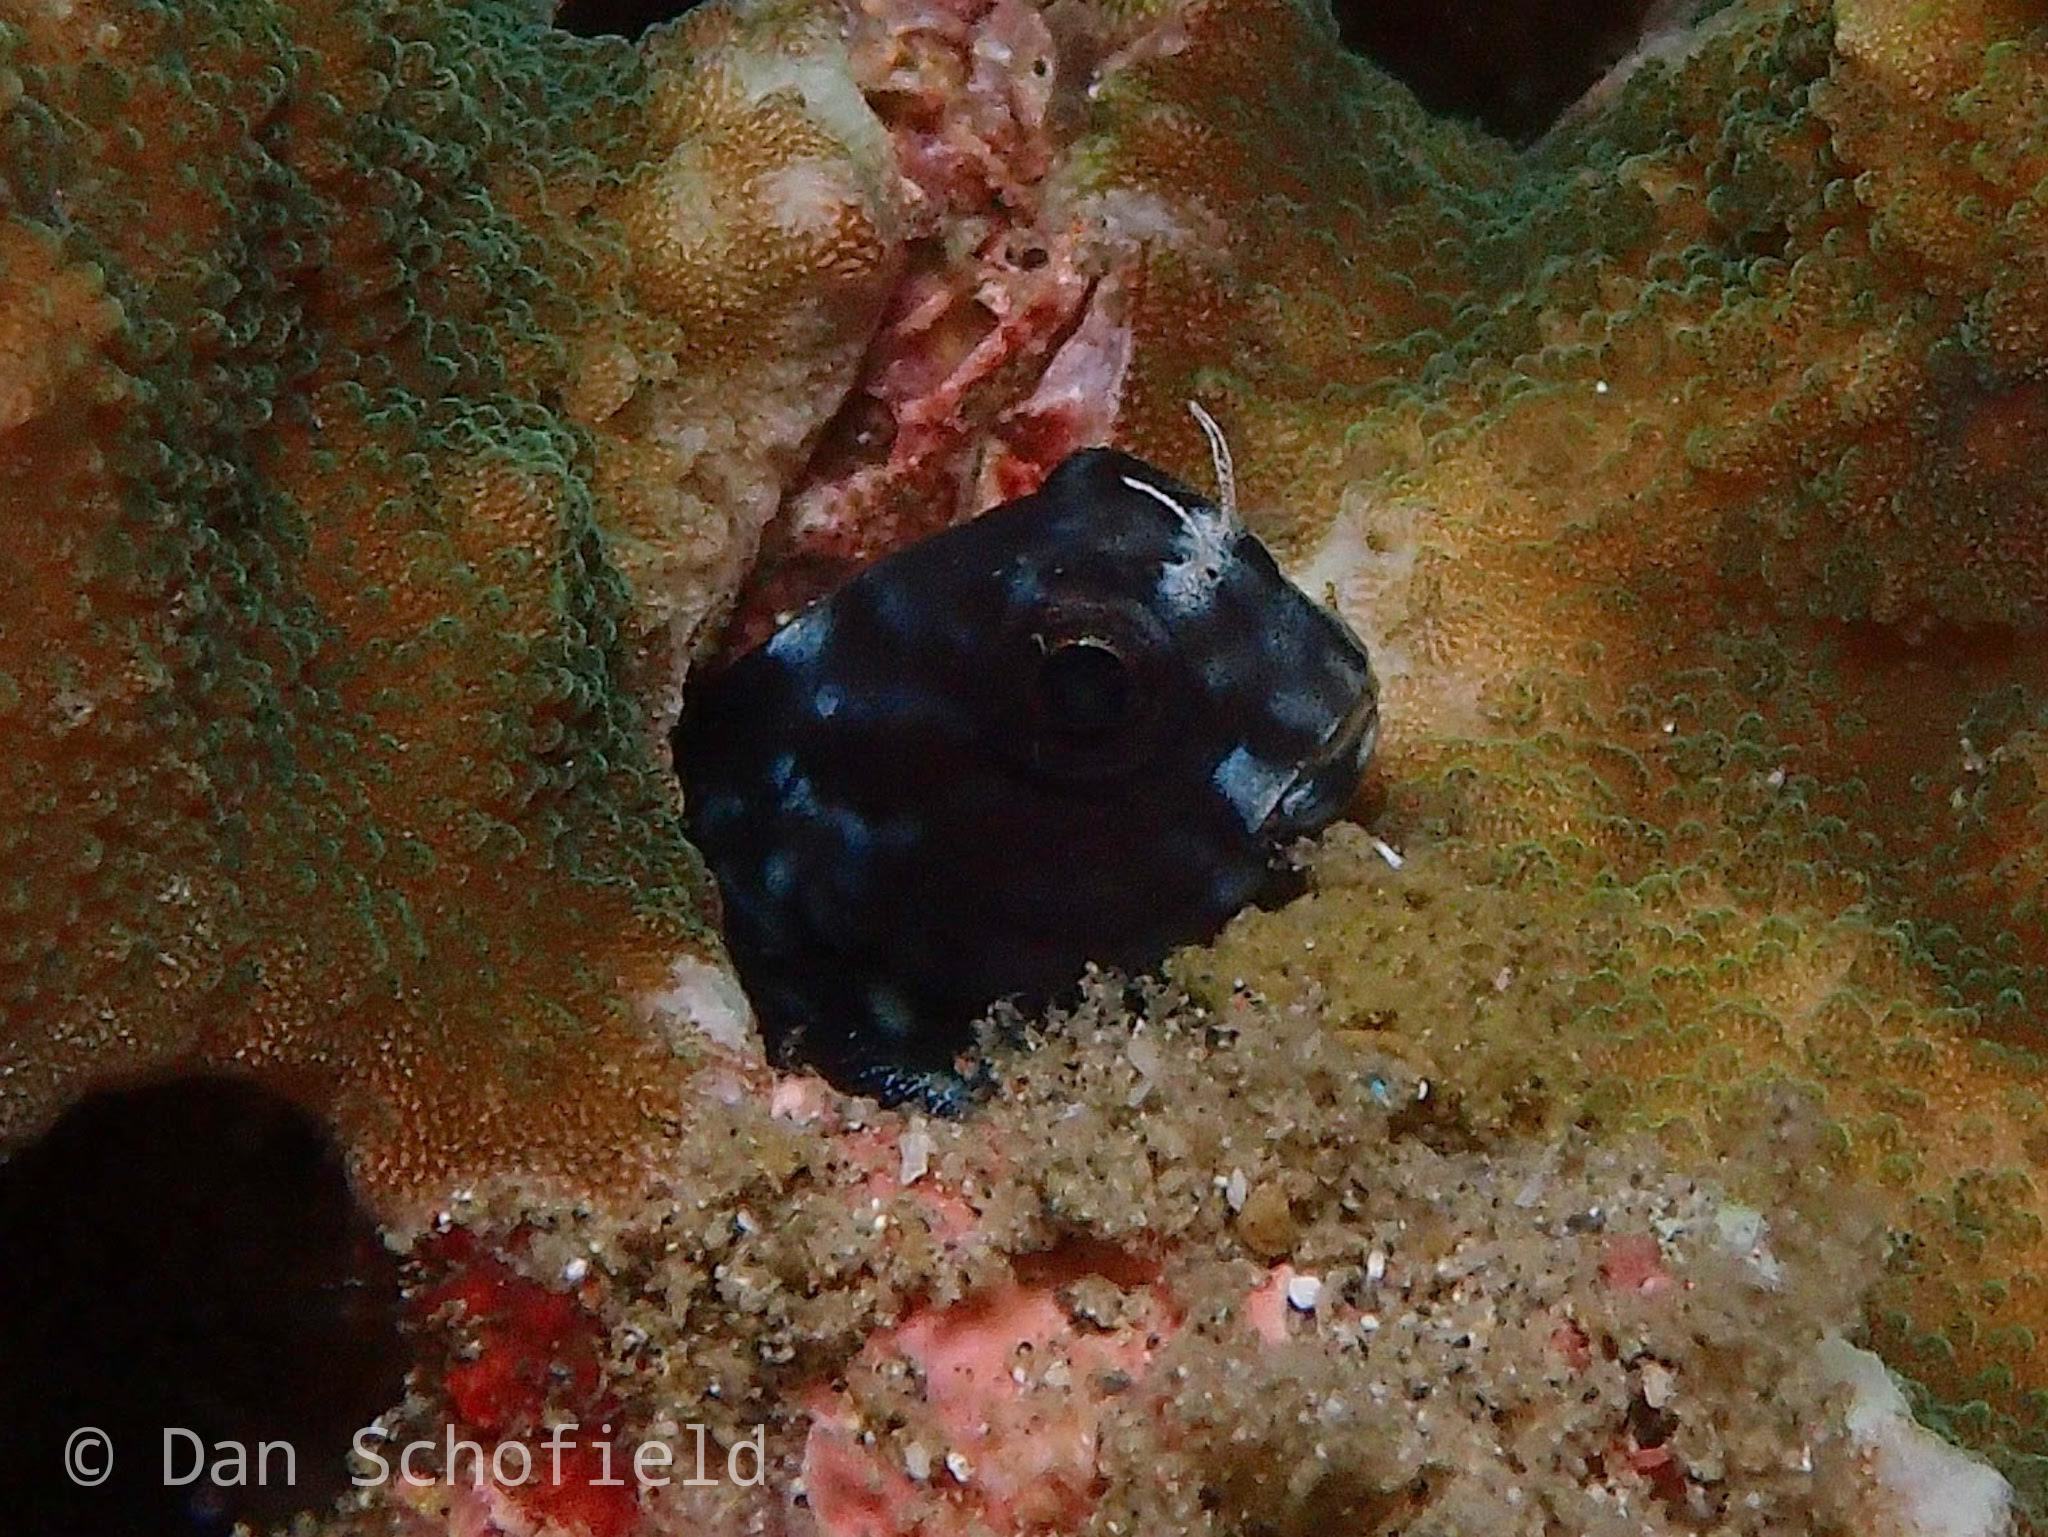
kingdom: Animalia
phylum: Chordata
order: Perciformes
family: Blenniidae
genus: Ecsenius
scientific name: Ecsenius namiyei
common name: Black comb-tooth
